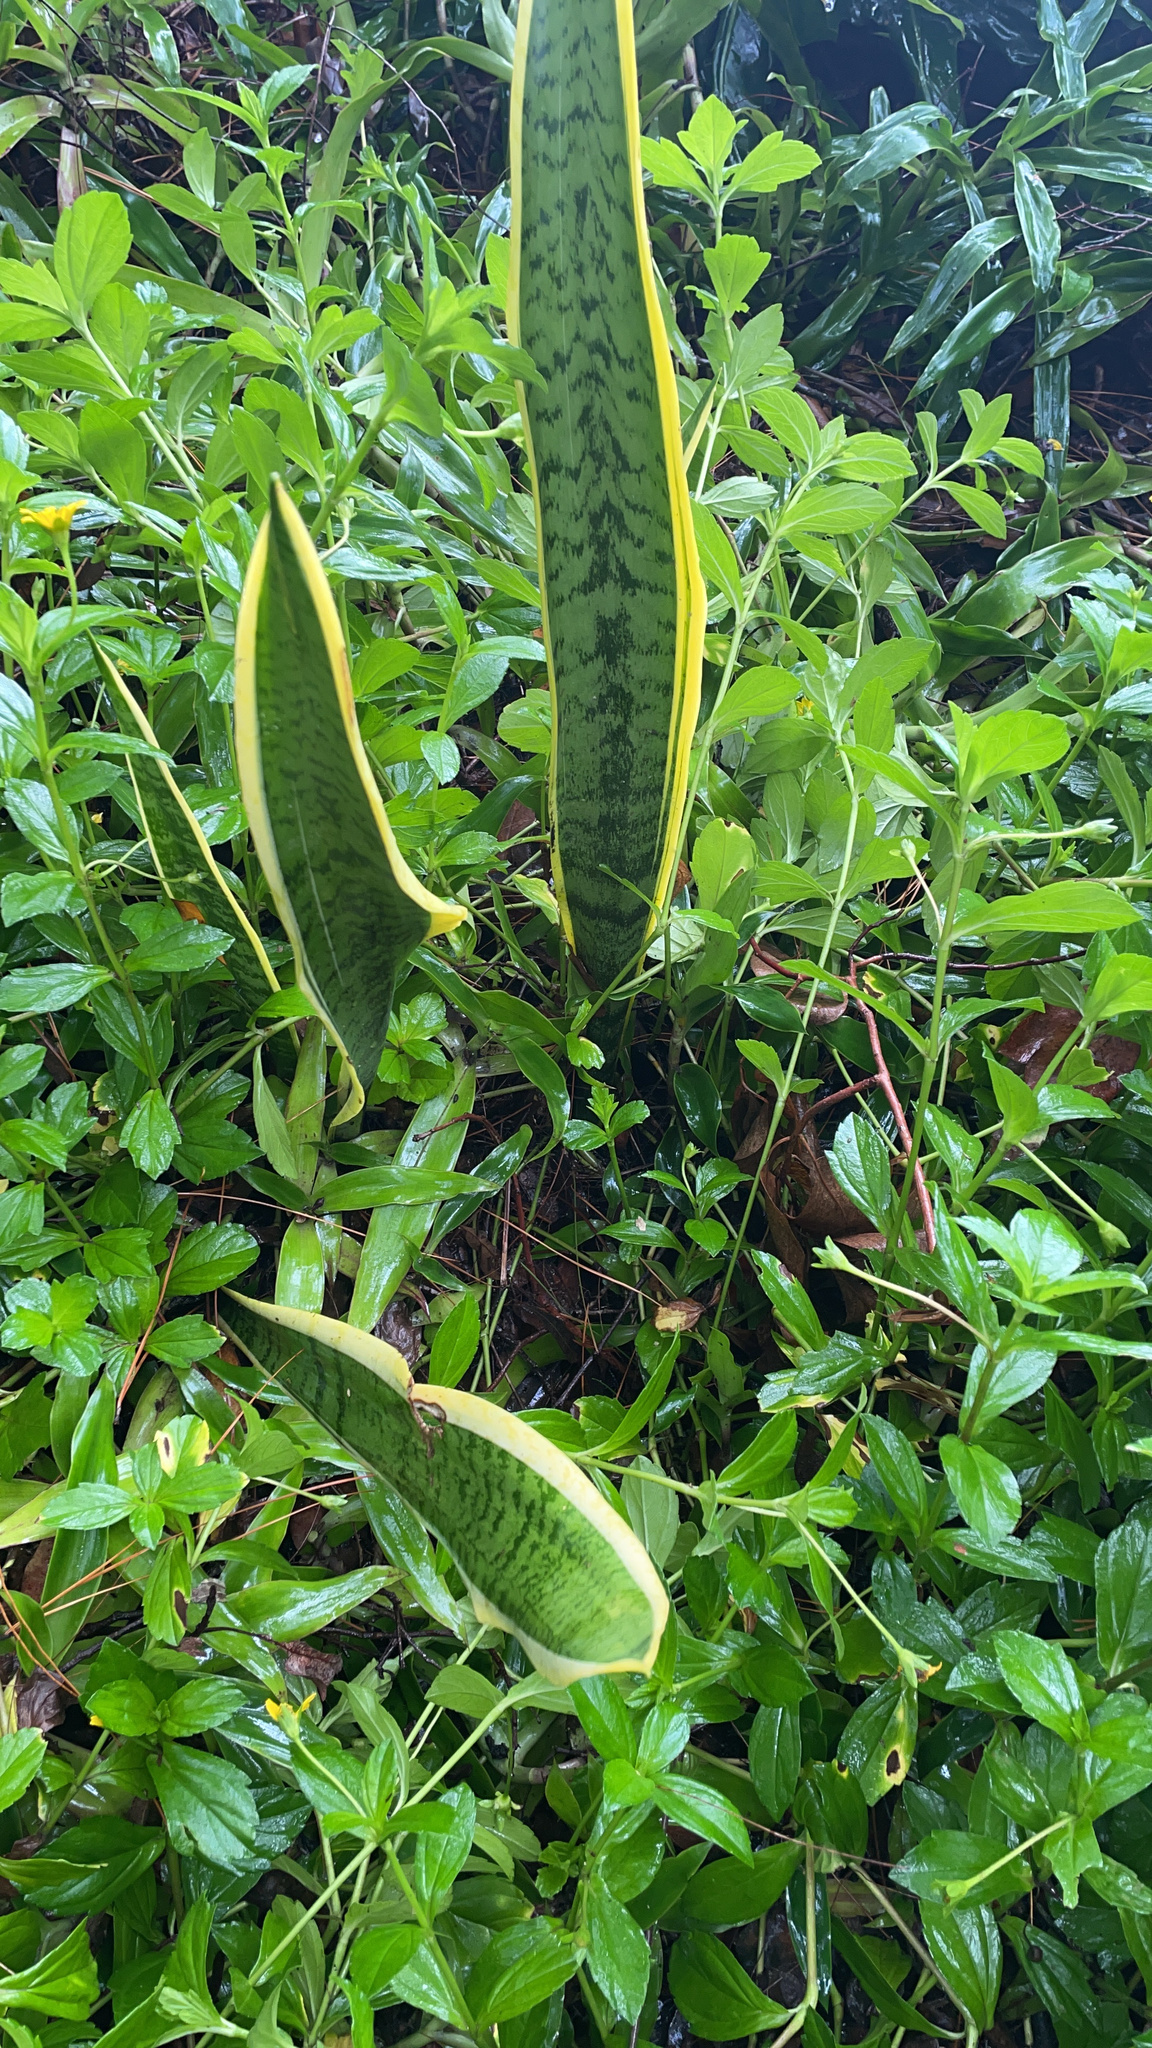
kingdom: Plantae
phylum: Tracheophyta
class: Liliopsida
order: Asparagales
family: Asparagaceae
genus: Dracaena
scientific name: Dracaena trifasciata
